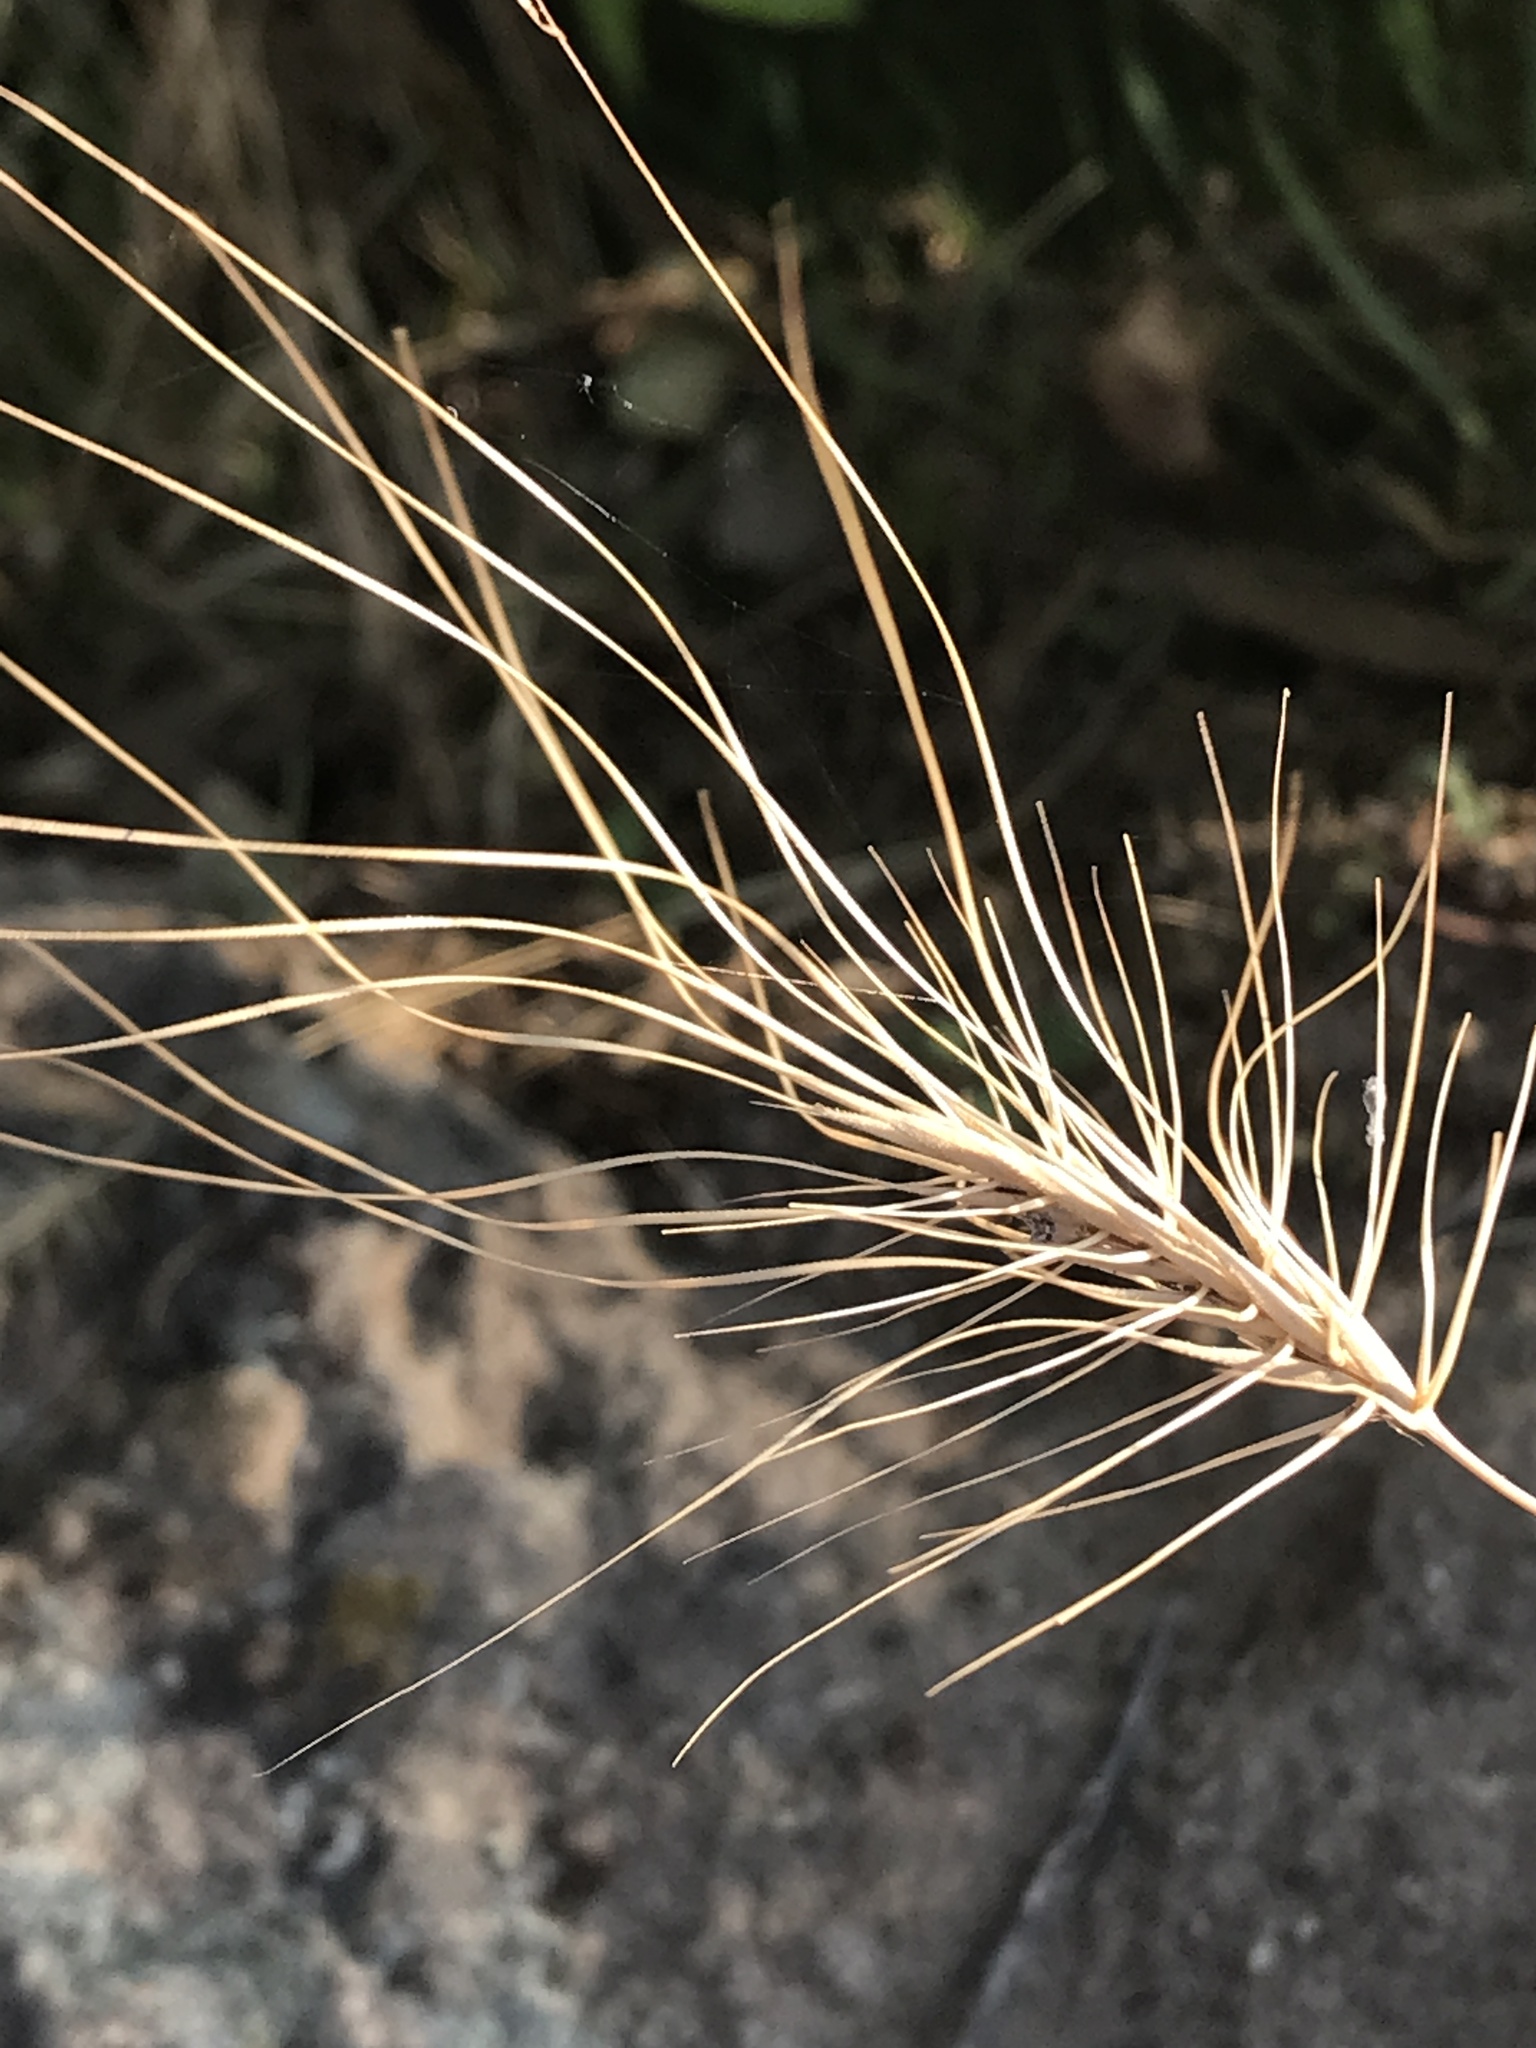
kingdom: Plantae
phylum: Tracheophyta
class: Liliopsida
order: Poales
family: Poaceae
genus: Taeniatherum
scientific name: Taeniatherum caput-medusae
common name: Medusahead
